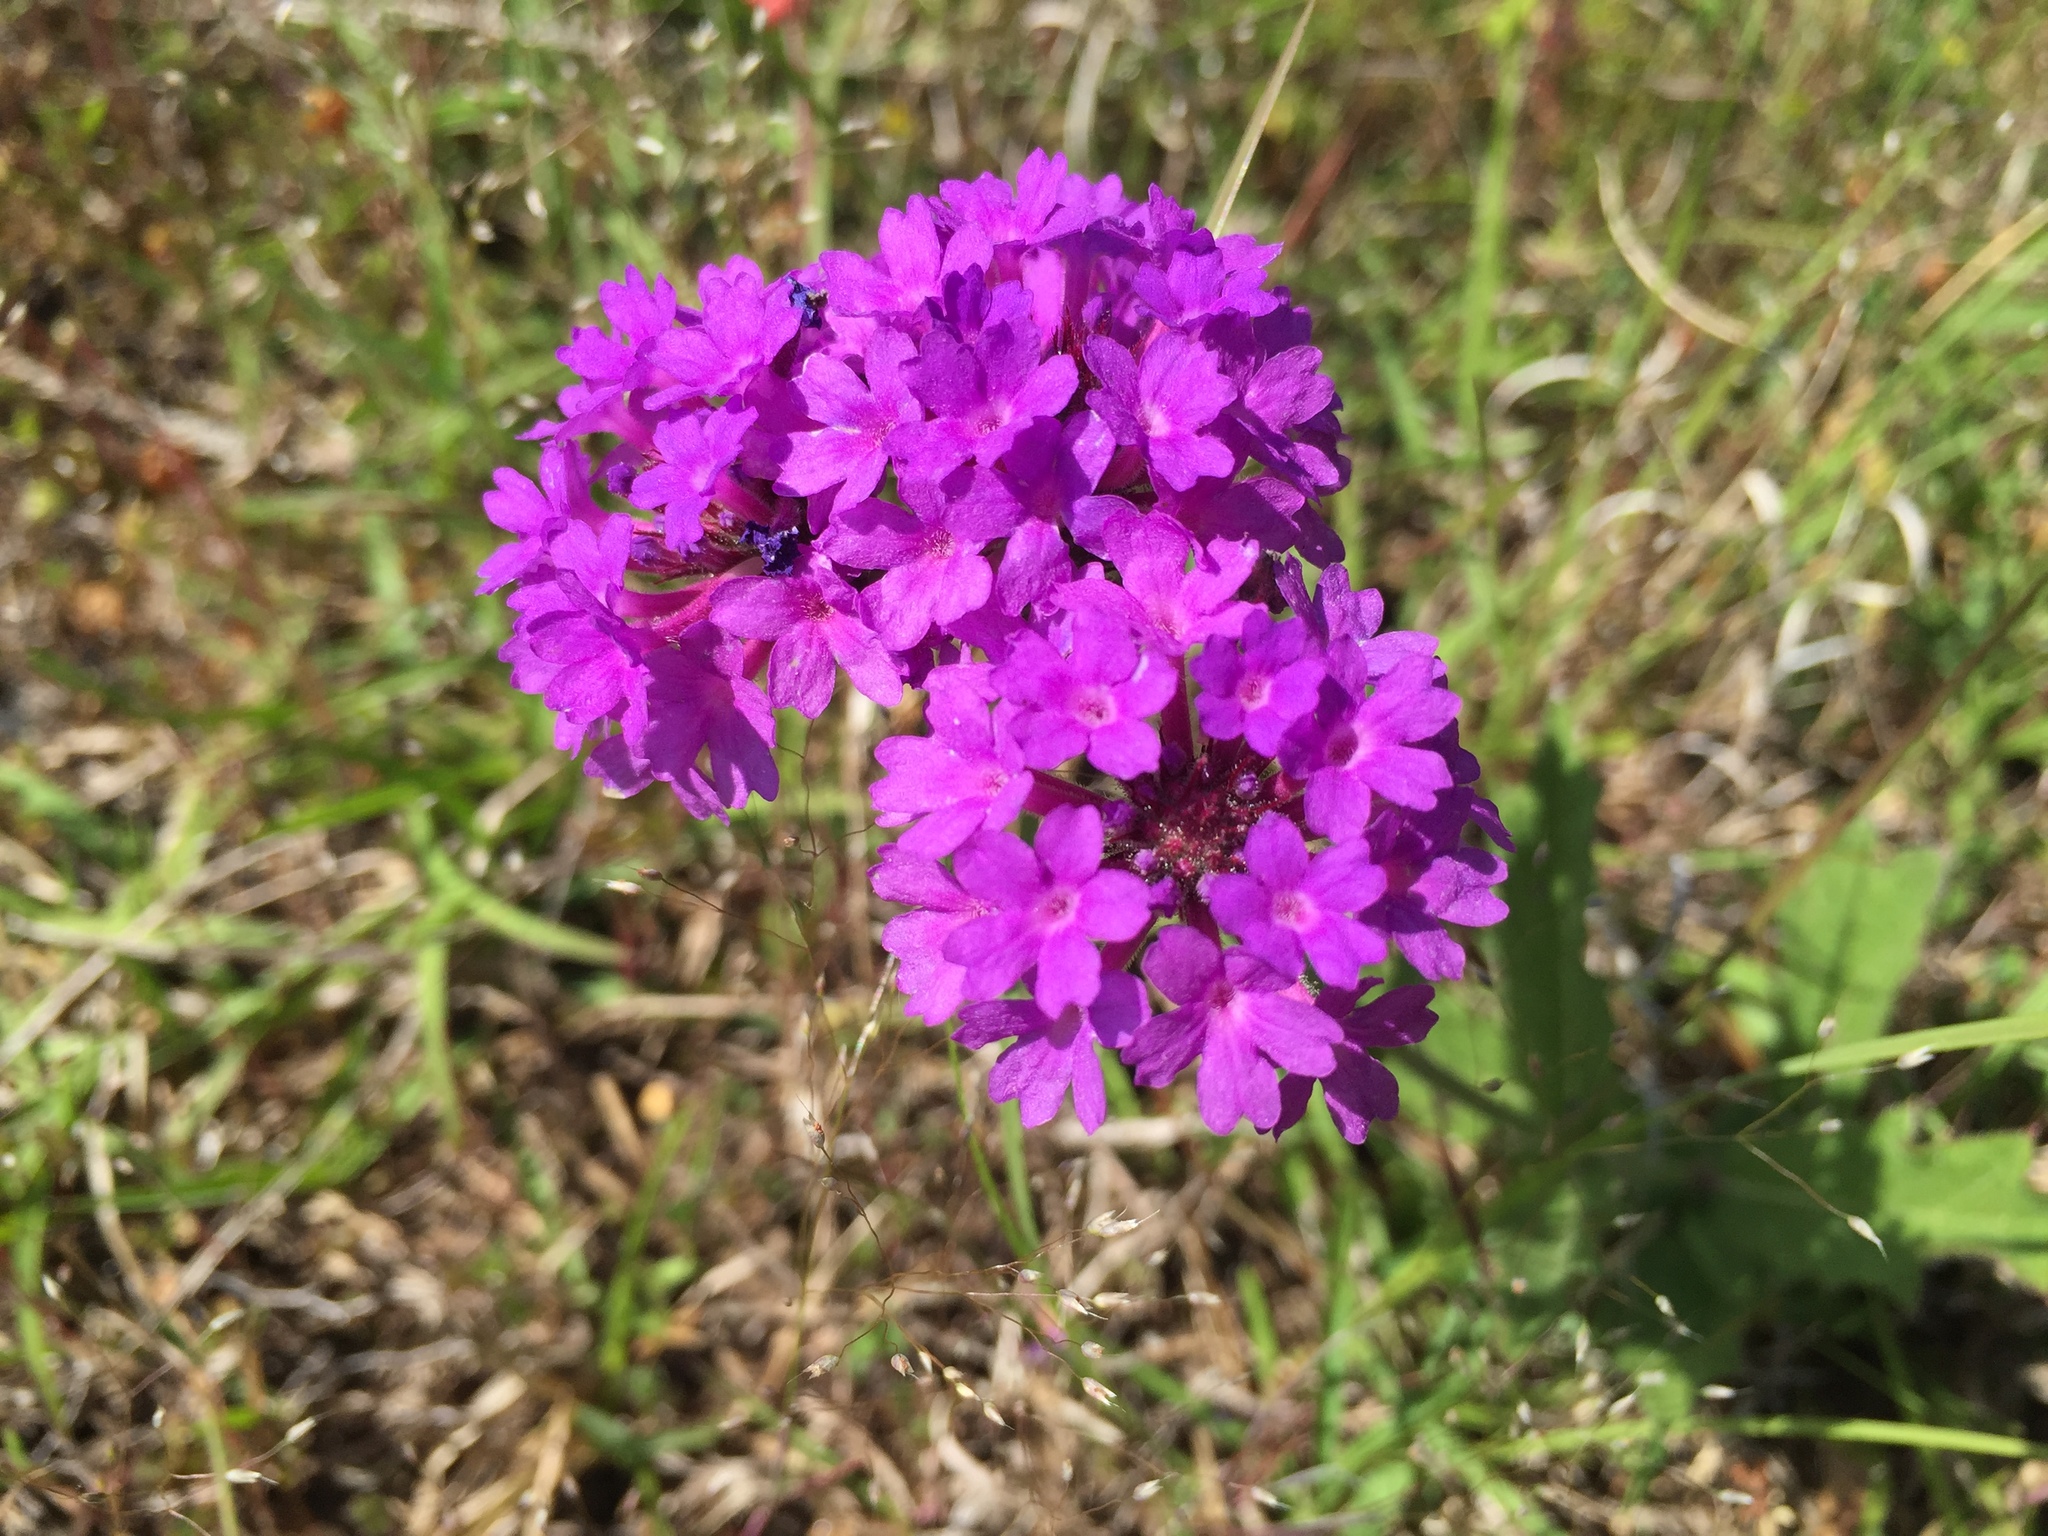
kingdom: Plantae
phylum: Tracheophyta
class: Magnoliopsida
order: Lamiales
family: Verbenaceae
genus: Verbena
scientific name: Verbena rigida
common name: Slender vervain
